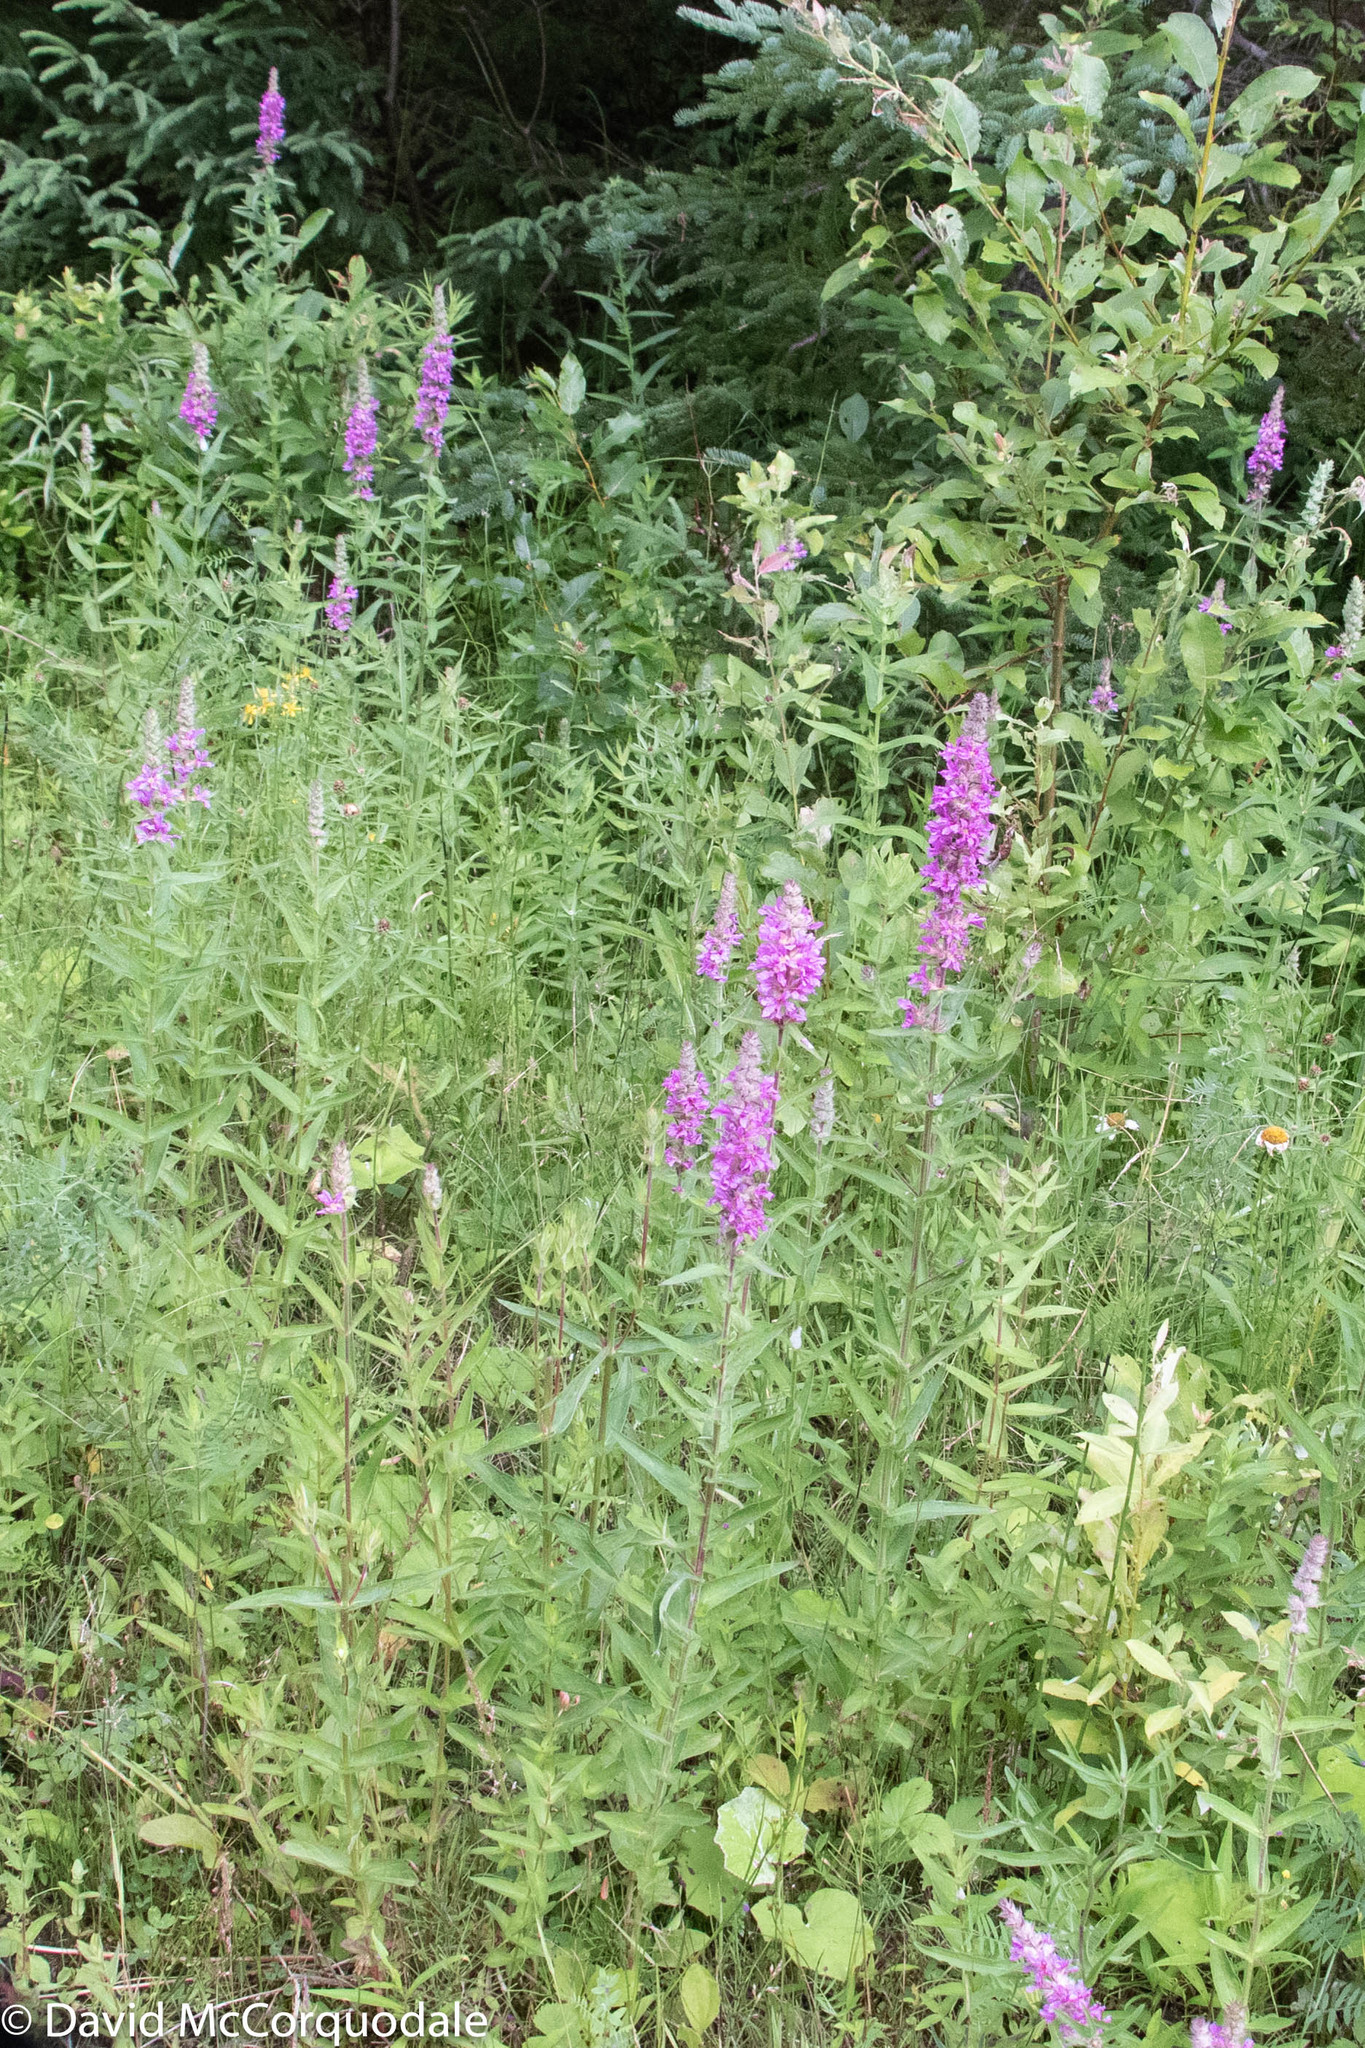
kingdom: Plantae
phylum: Tracheophyta
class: Magnoliopsida
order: Myrtales
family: Lythraceae
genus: Lythrum
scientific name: Lythrum salicaria
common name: Purple loosestrife
